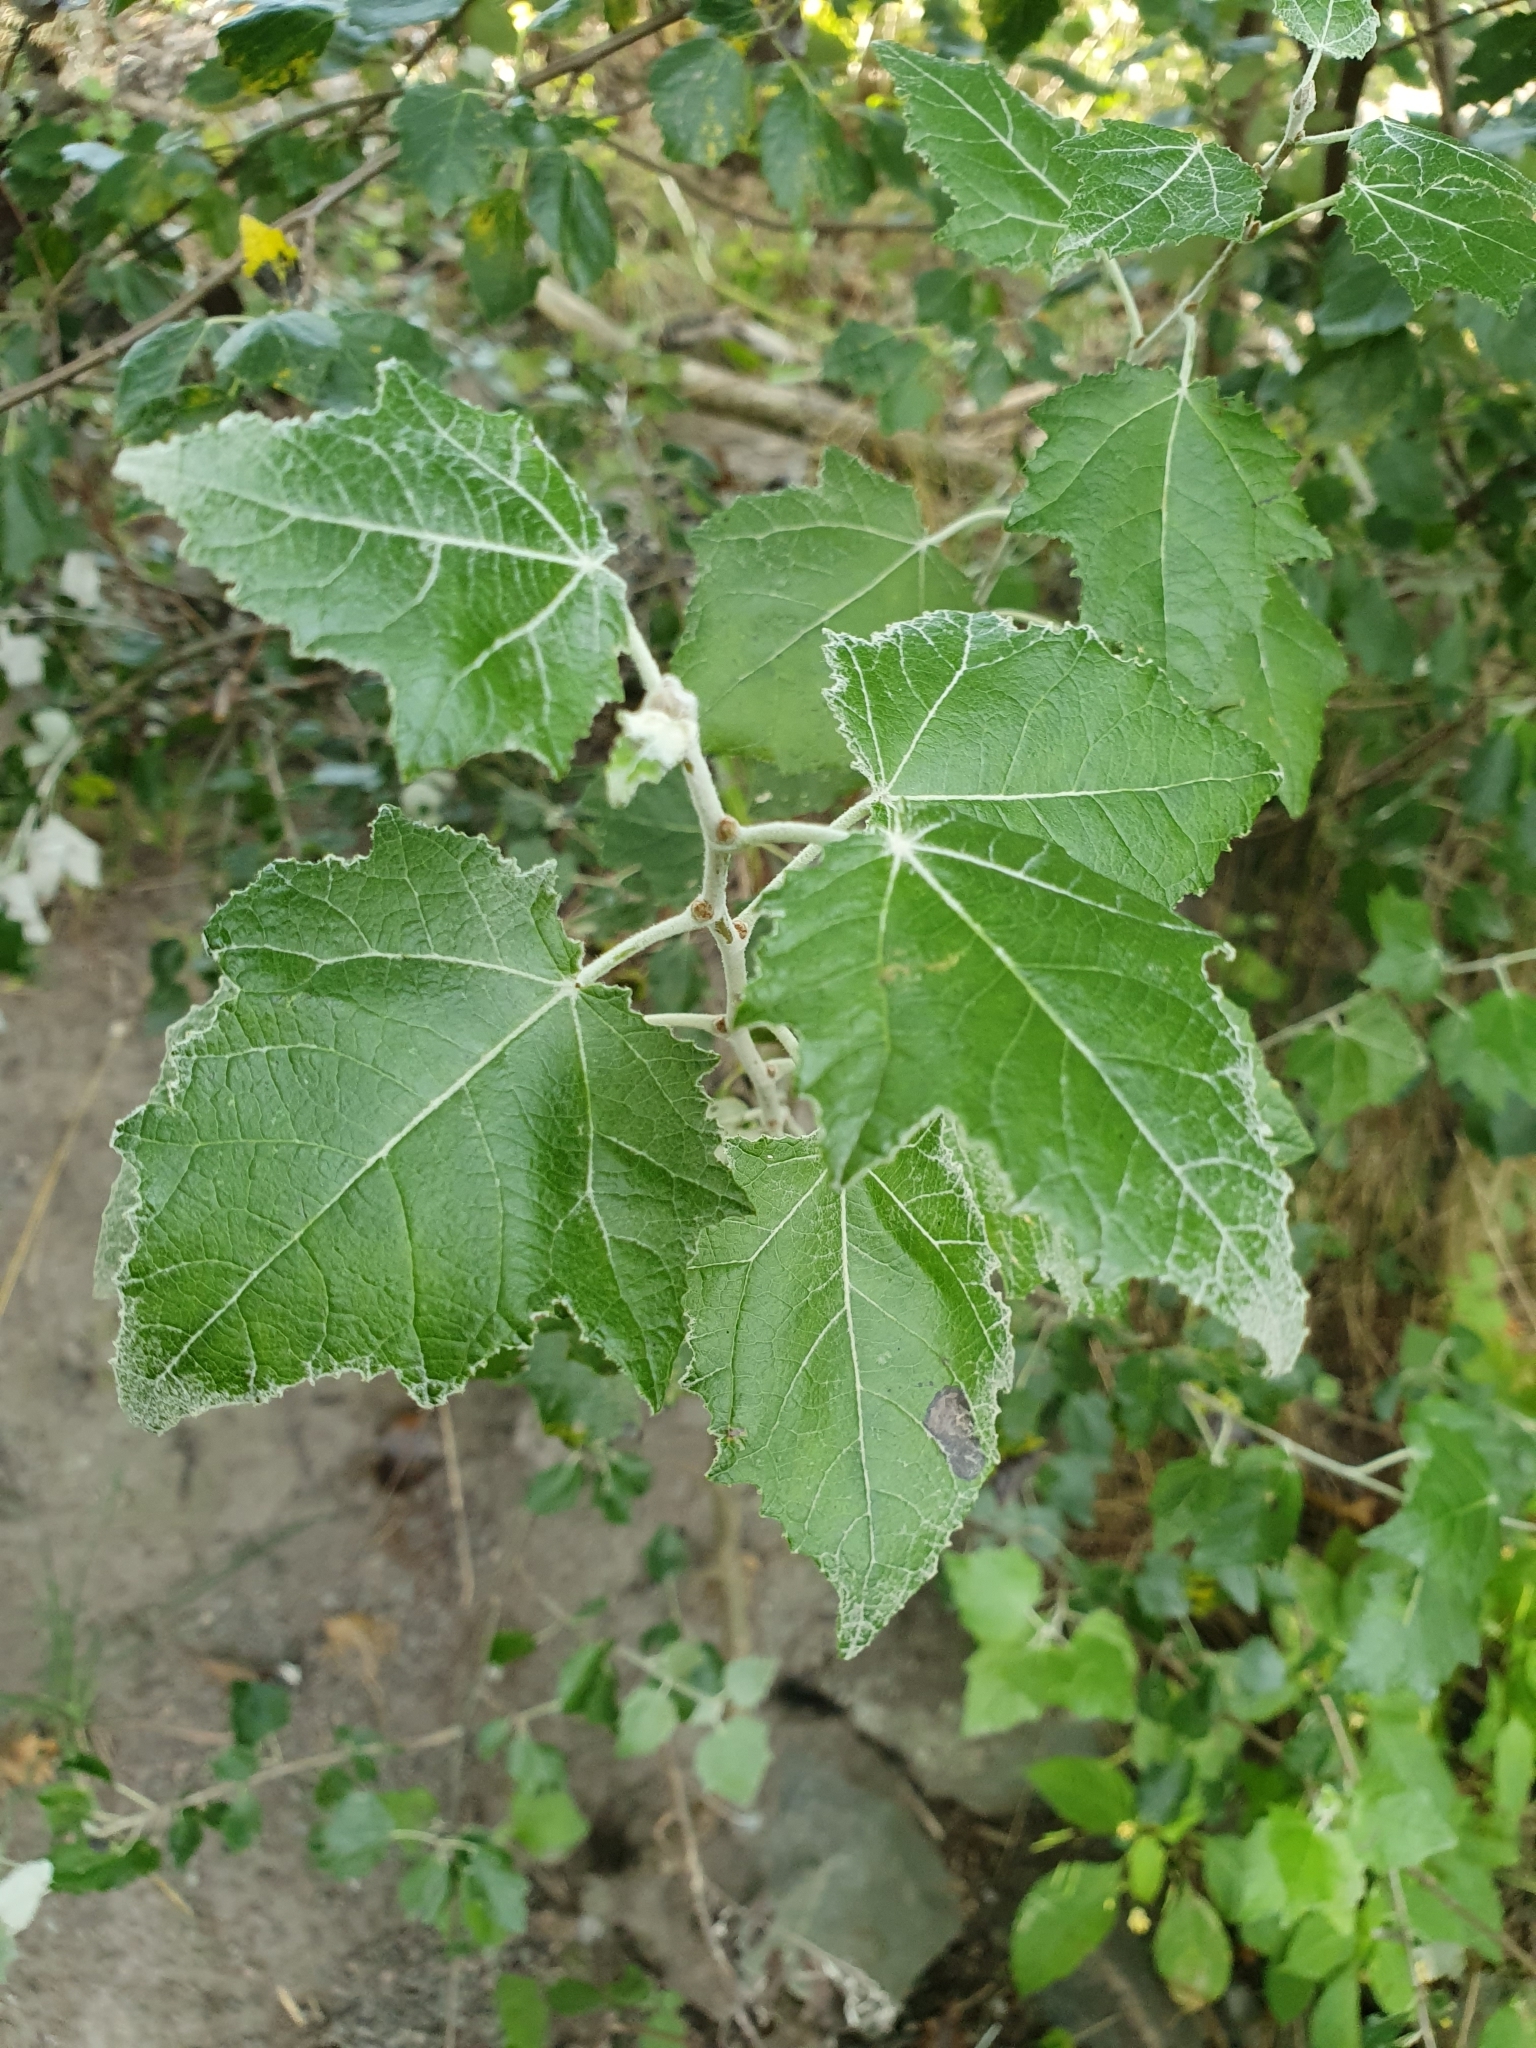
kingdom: Plantae
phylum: Tracheophyta
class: Magnoliopsida
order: Malpighiales
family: Salicaceae
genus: Populus
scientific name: Populus alba
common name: White poplar
